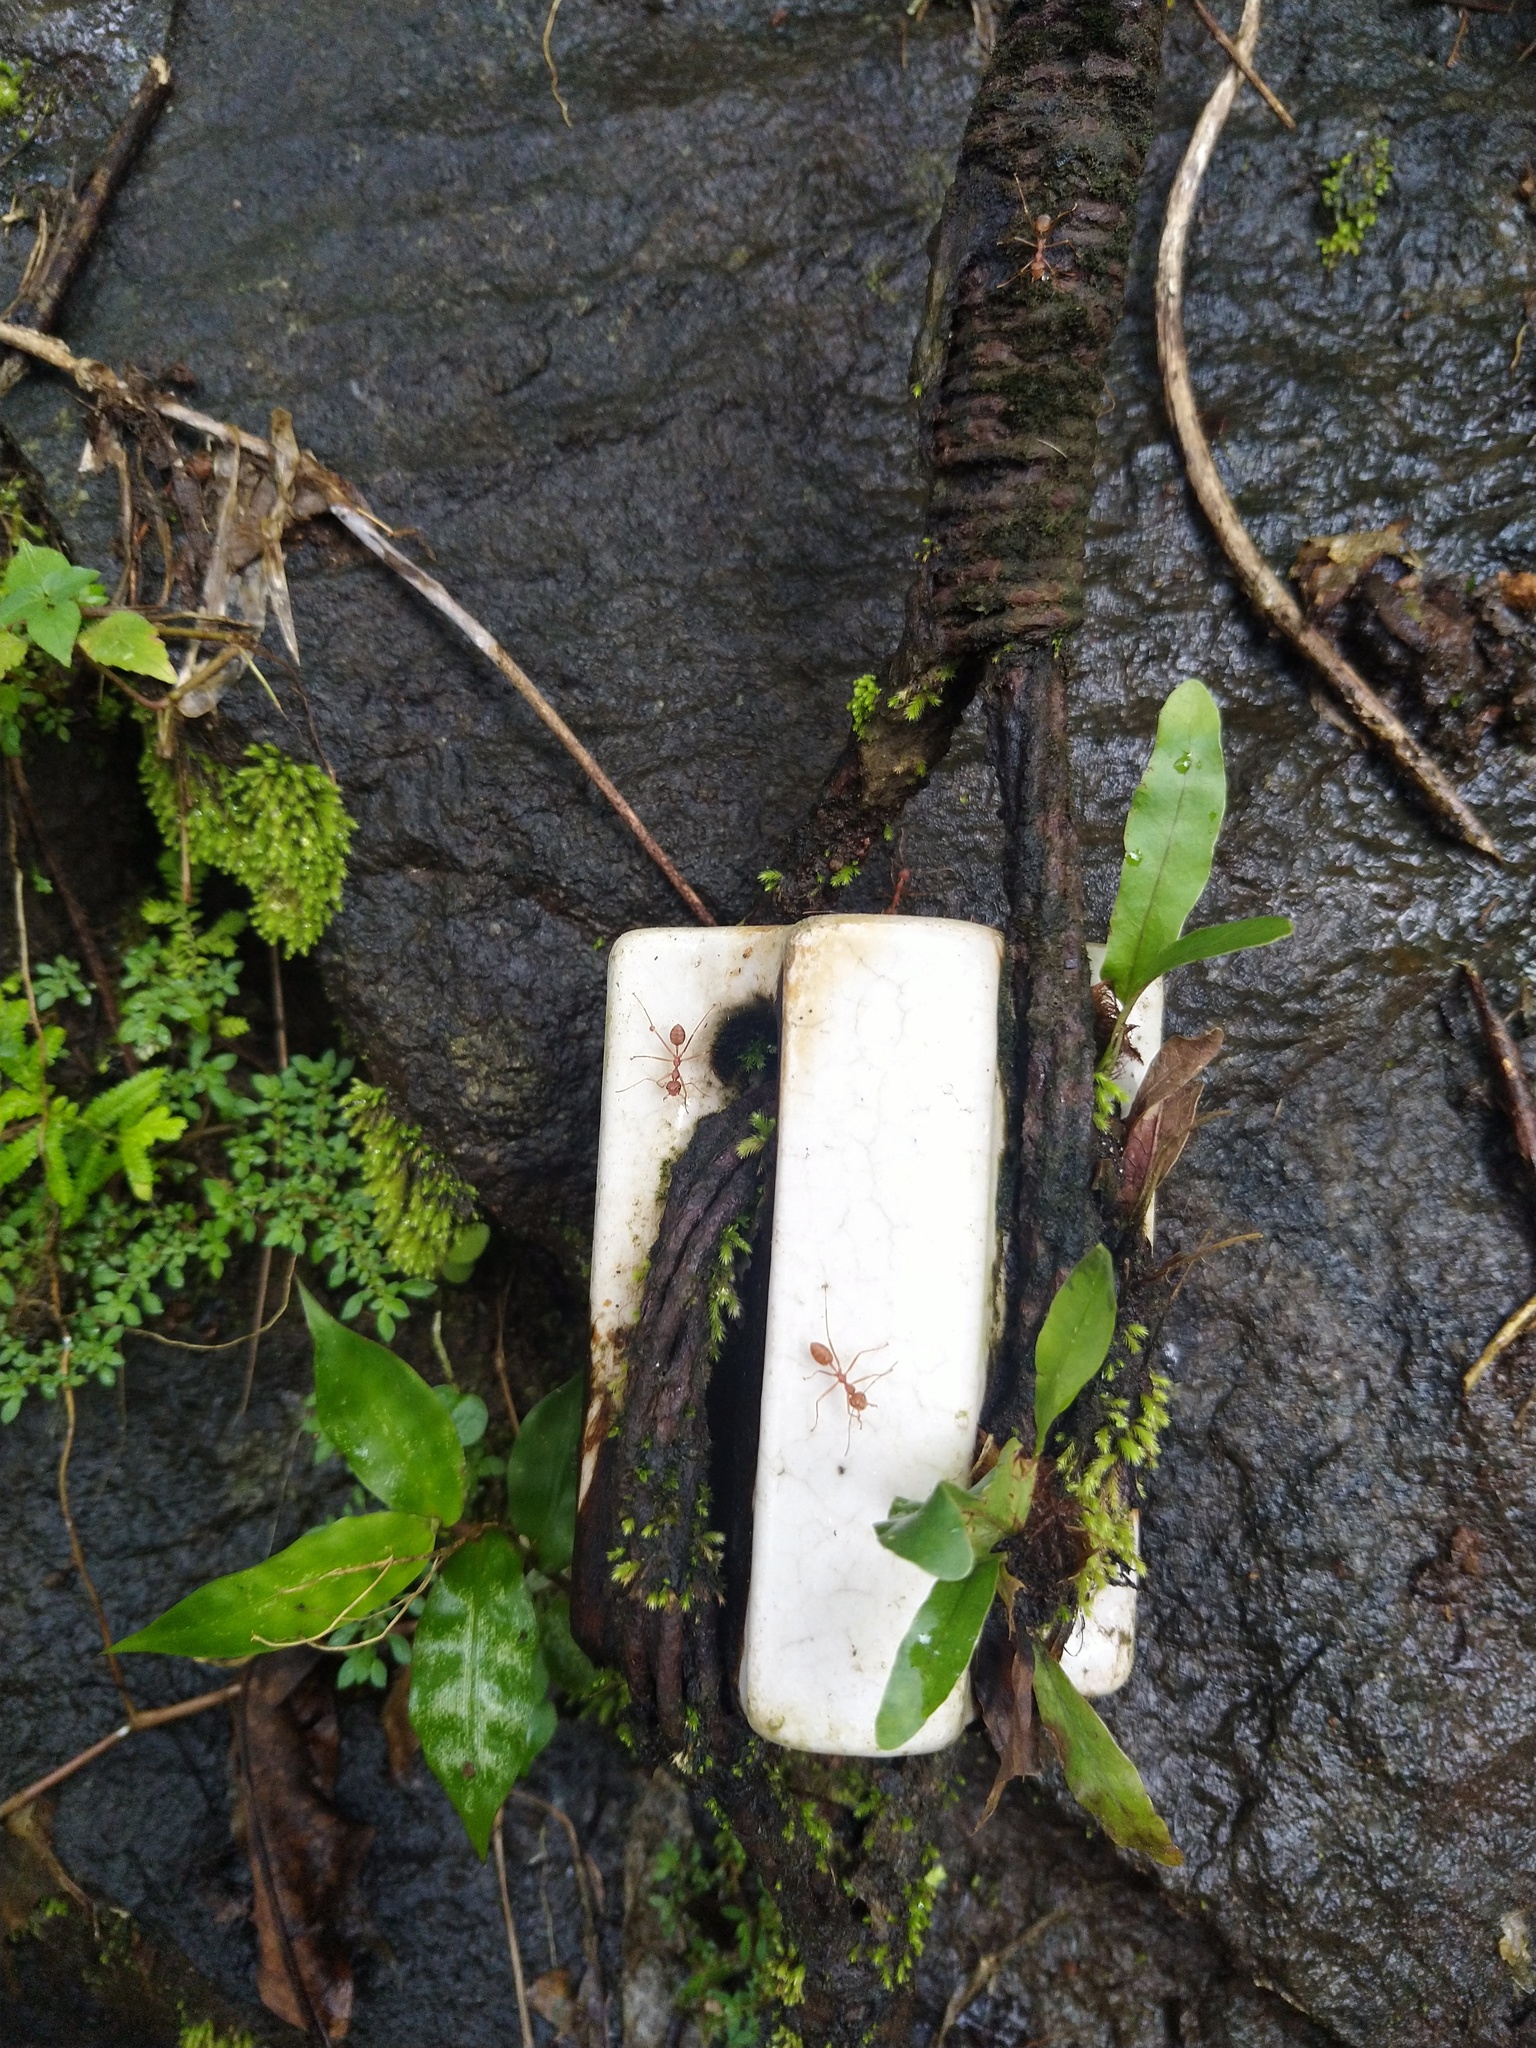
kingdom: Animalia
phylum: Arthropoda
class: Insecta
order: Hymenoptera
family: Formicidae
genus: Oecophylla
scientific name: Oecophylla smaragdina
